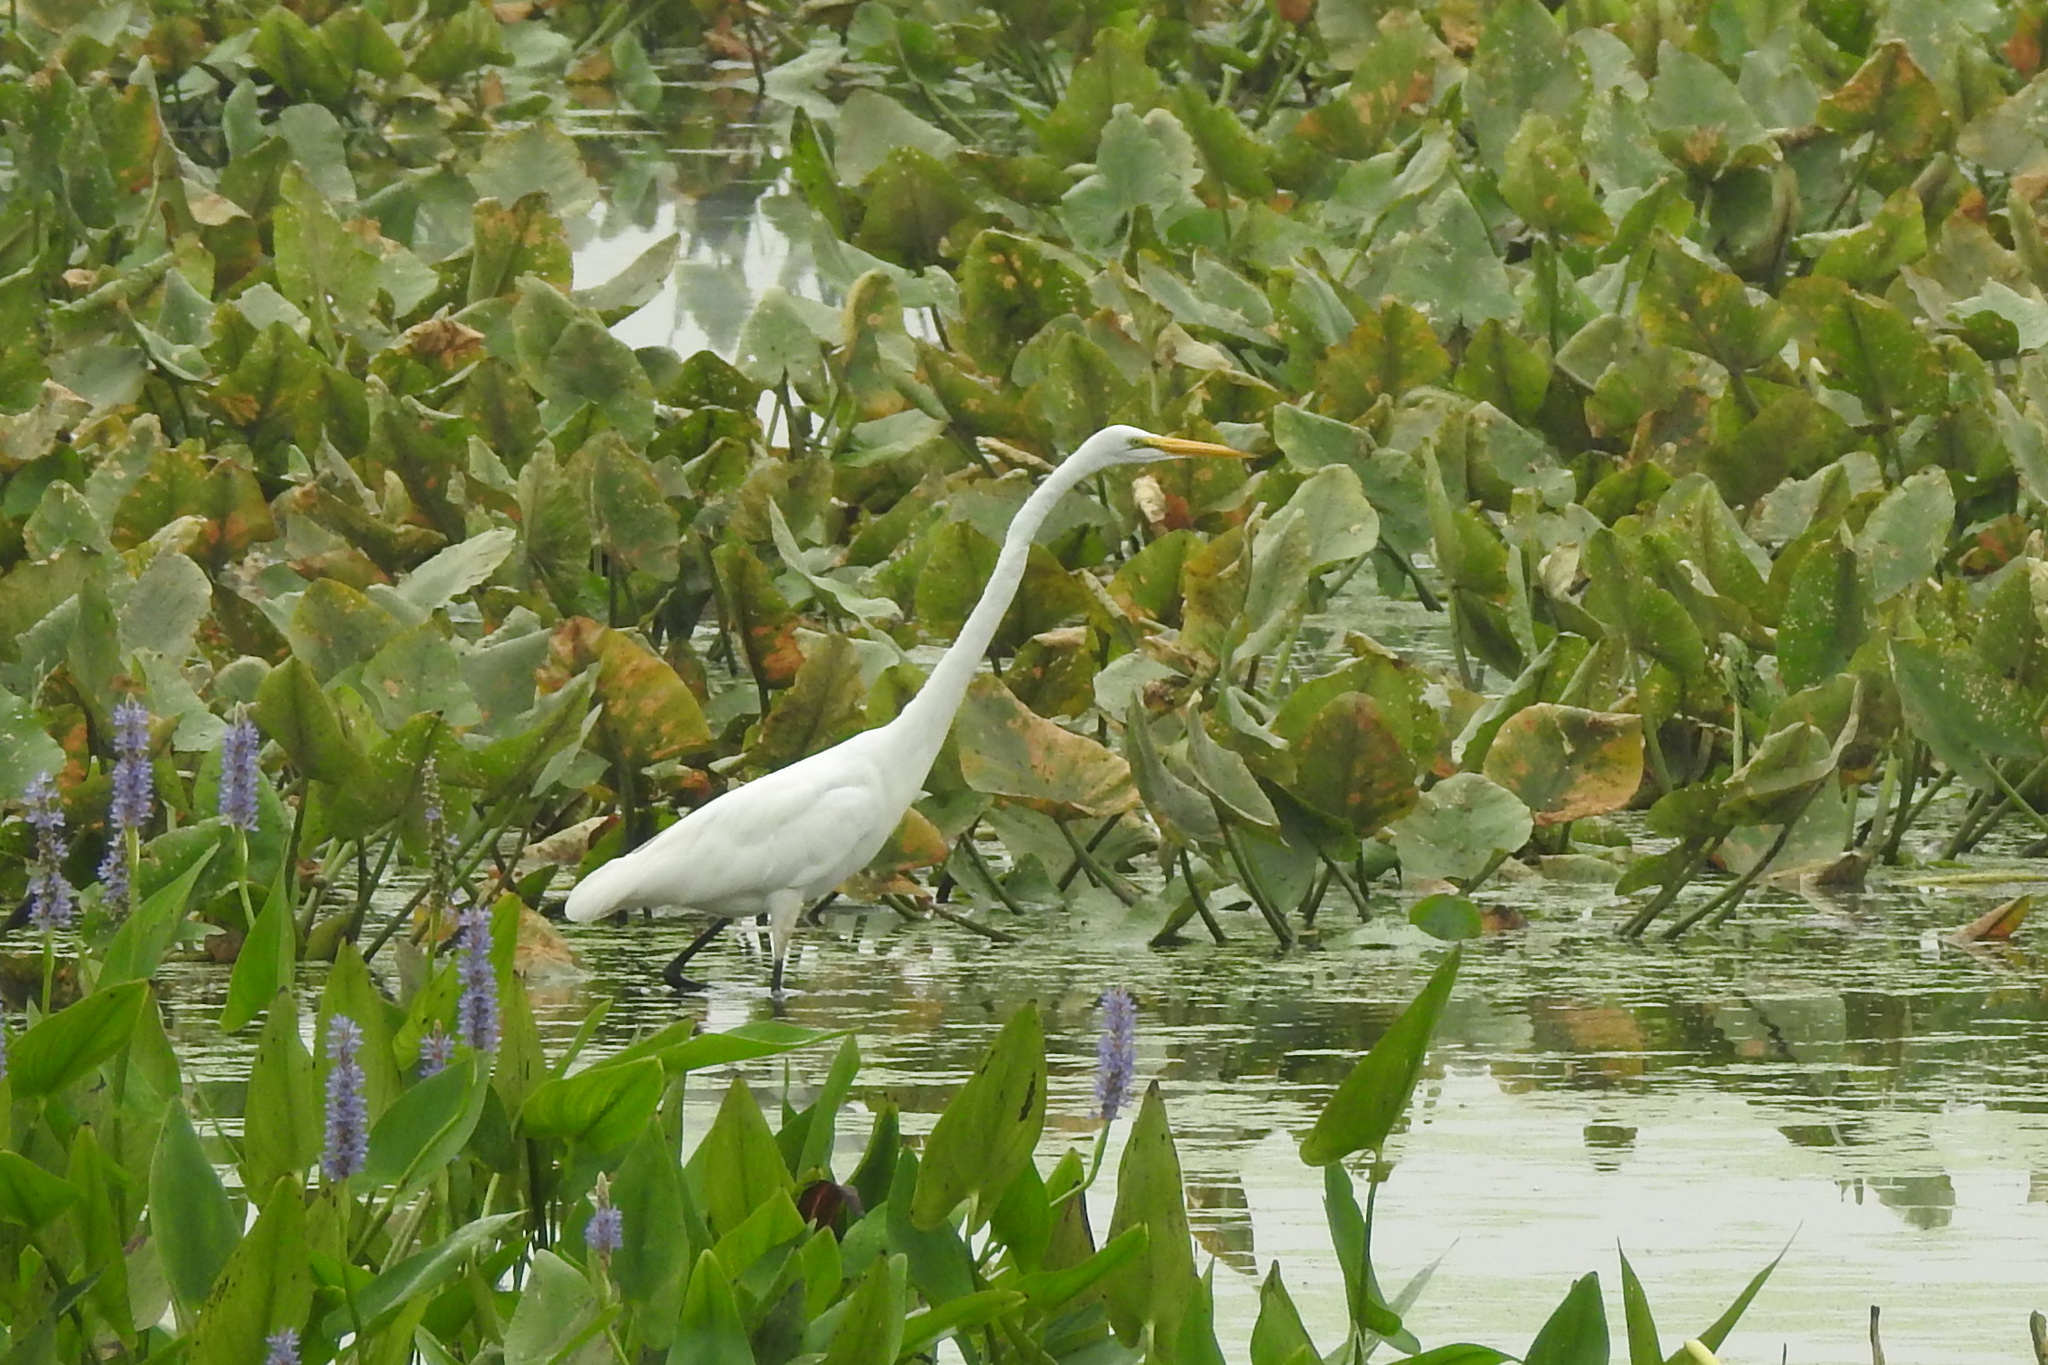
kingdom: Animalia
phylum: Chordata
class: Aves
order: Pelecaniformes
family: Ardeidae
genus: Ardea
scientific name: Ardea alba
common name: Great egret
